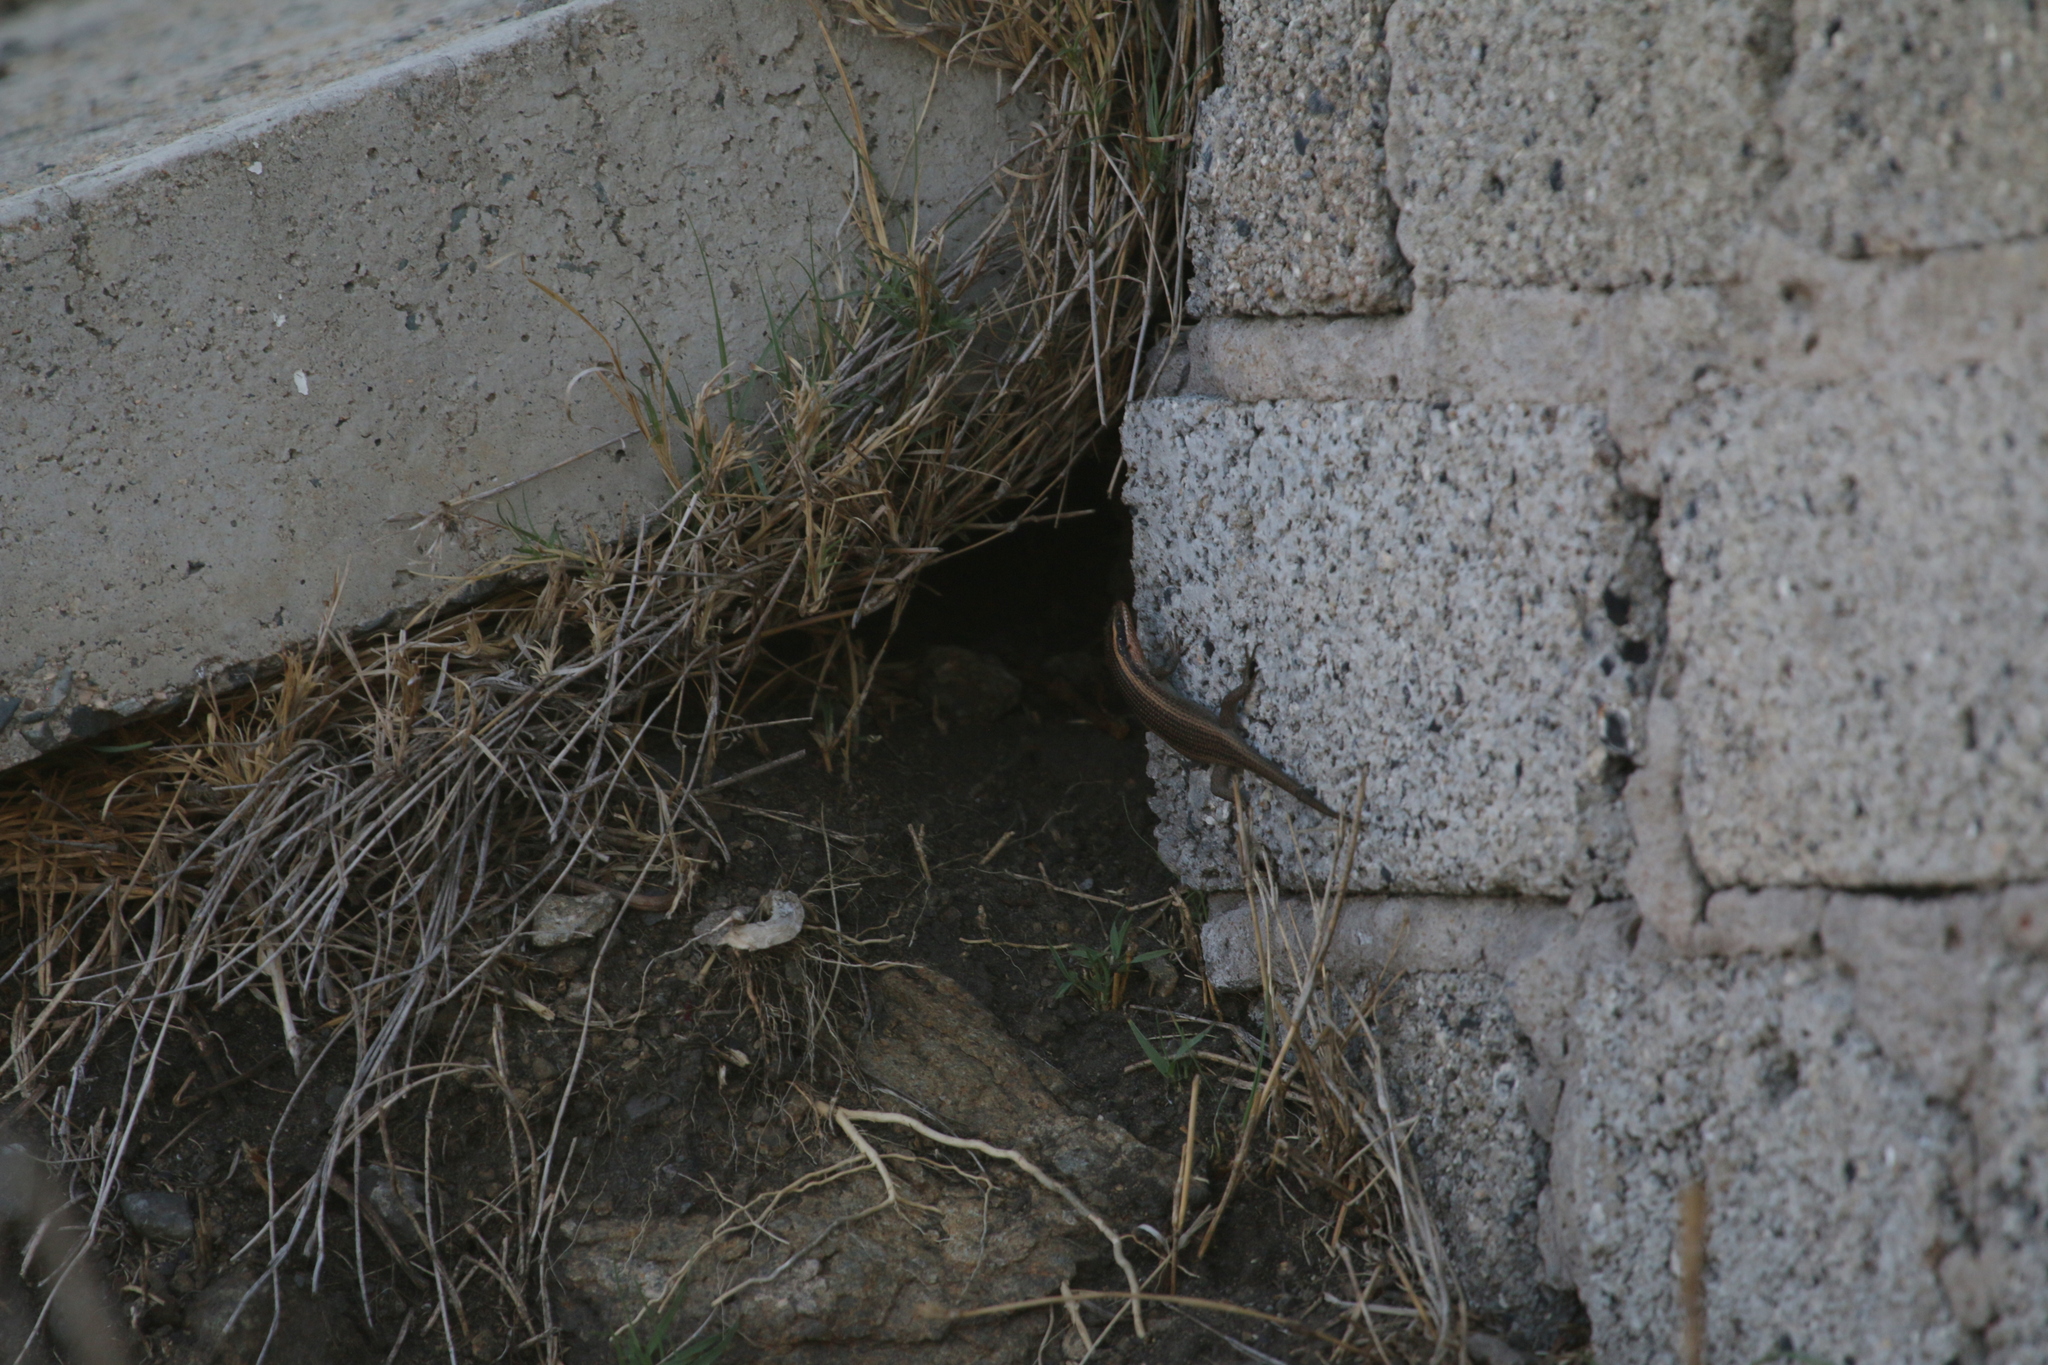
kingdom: Animalia
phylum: Chordata
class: Squamata
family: Scincidae
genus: Trachylepis
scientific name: Trachylepis punctatissima
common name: Montane speckled skink
